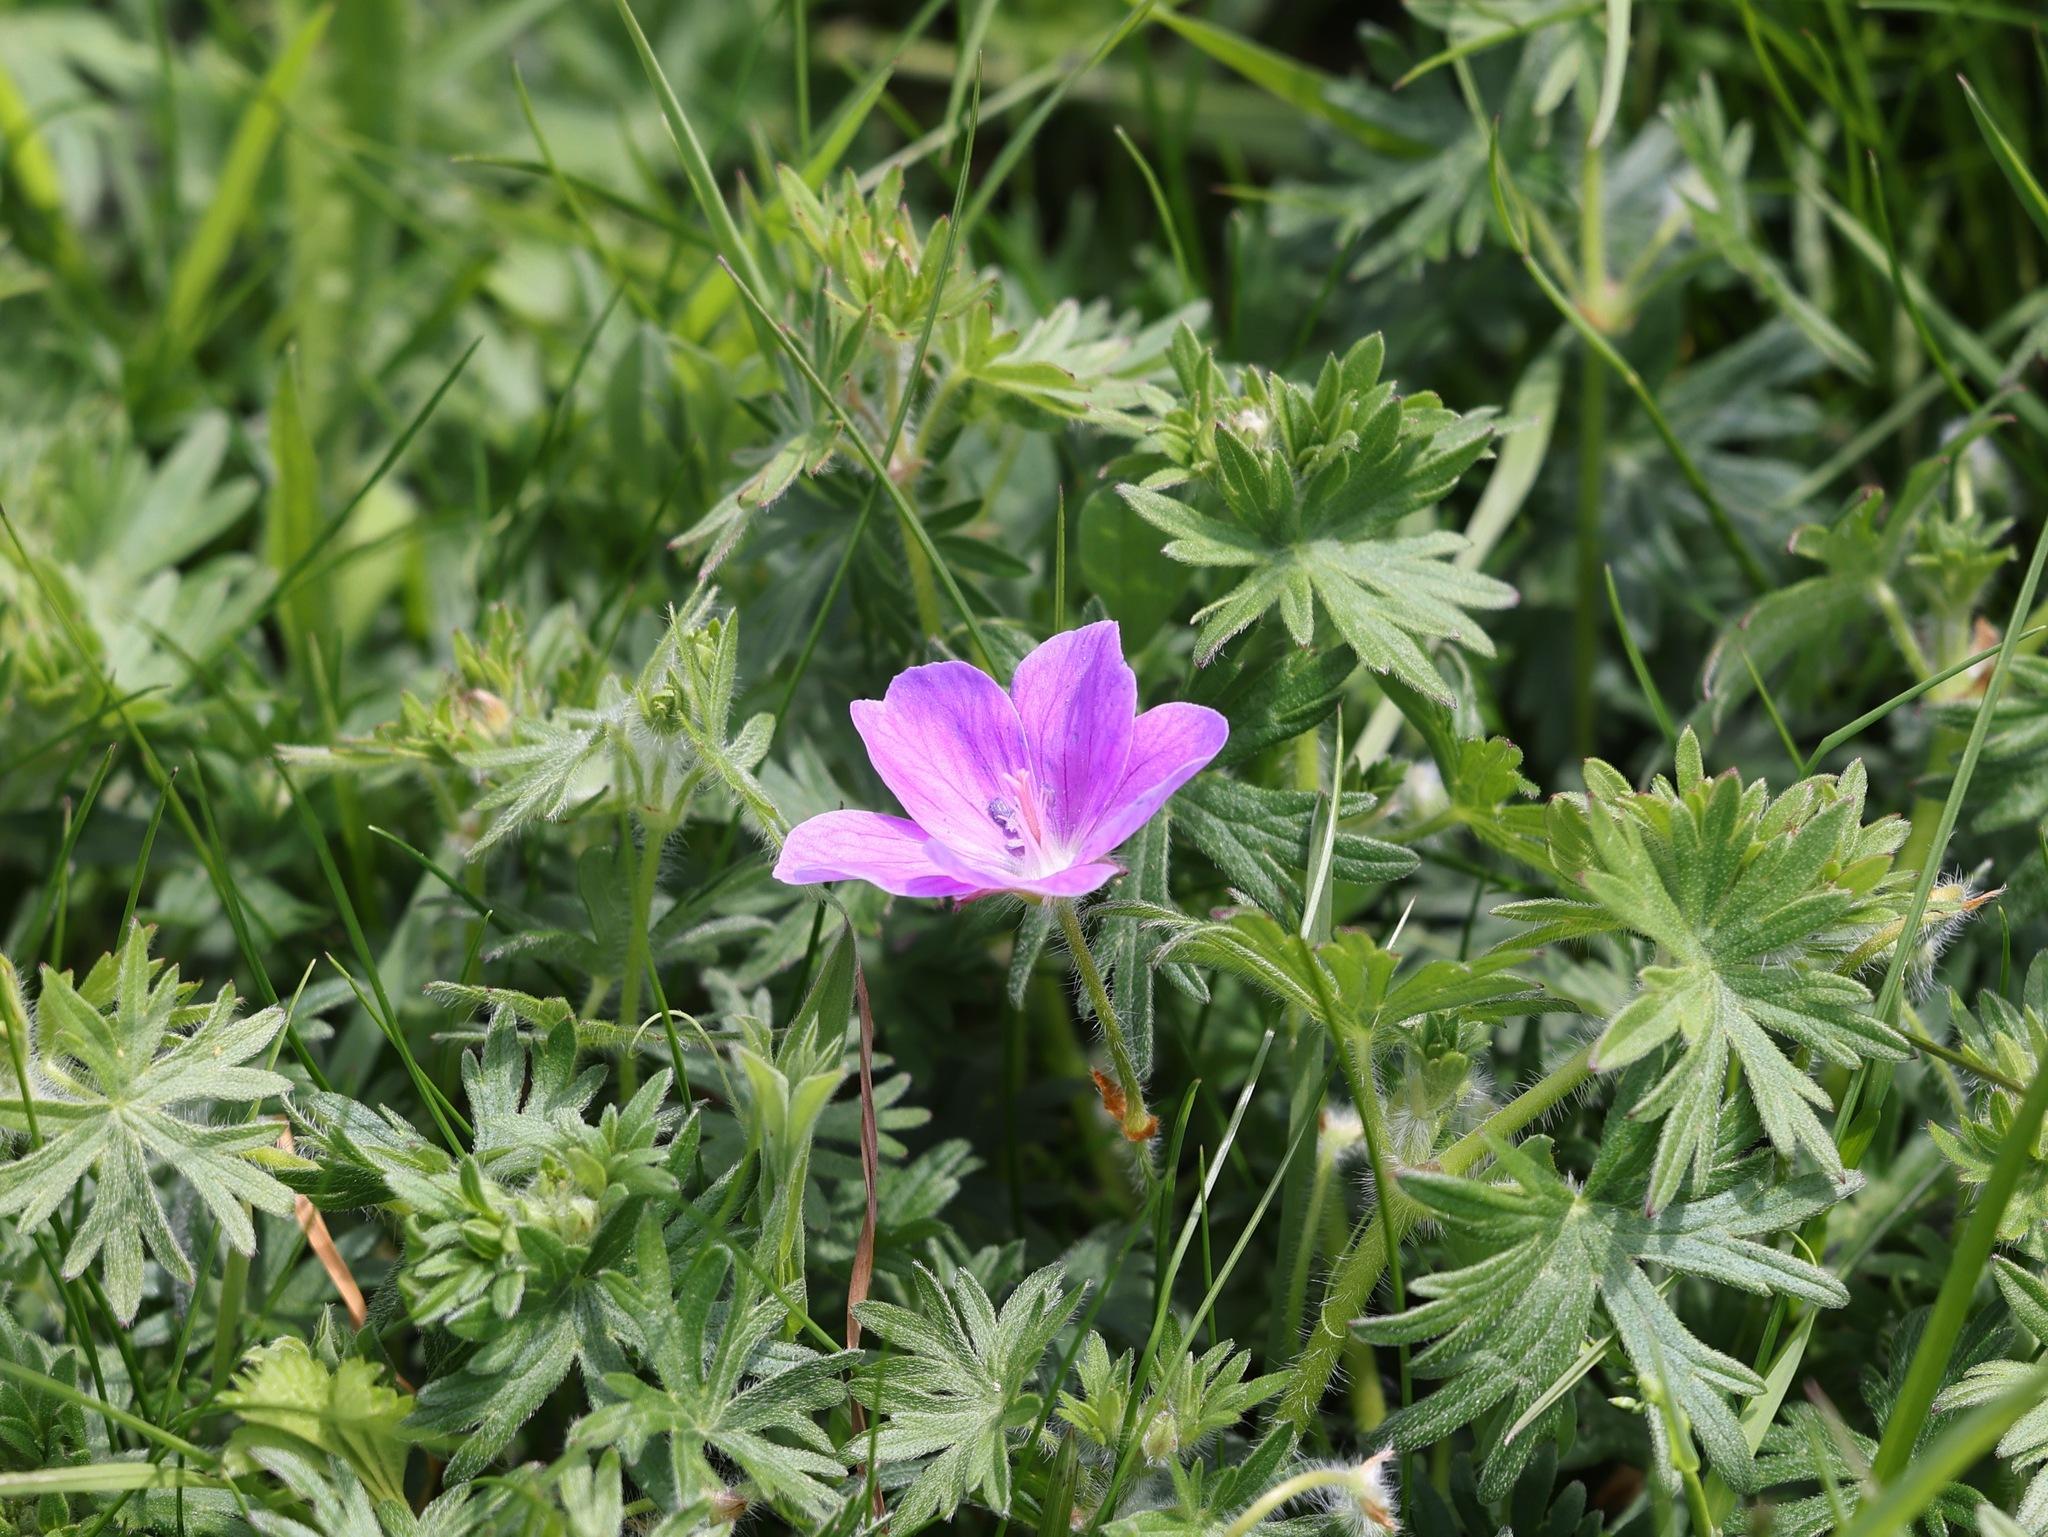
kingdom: Plantae
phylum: Tracheophyta
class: Magnoliopsida
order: Geraniales
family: Geraniaceae
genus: Geranium
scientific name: Geranium sanguineum
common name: Bloody crane's-bill
